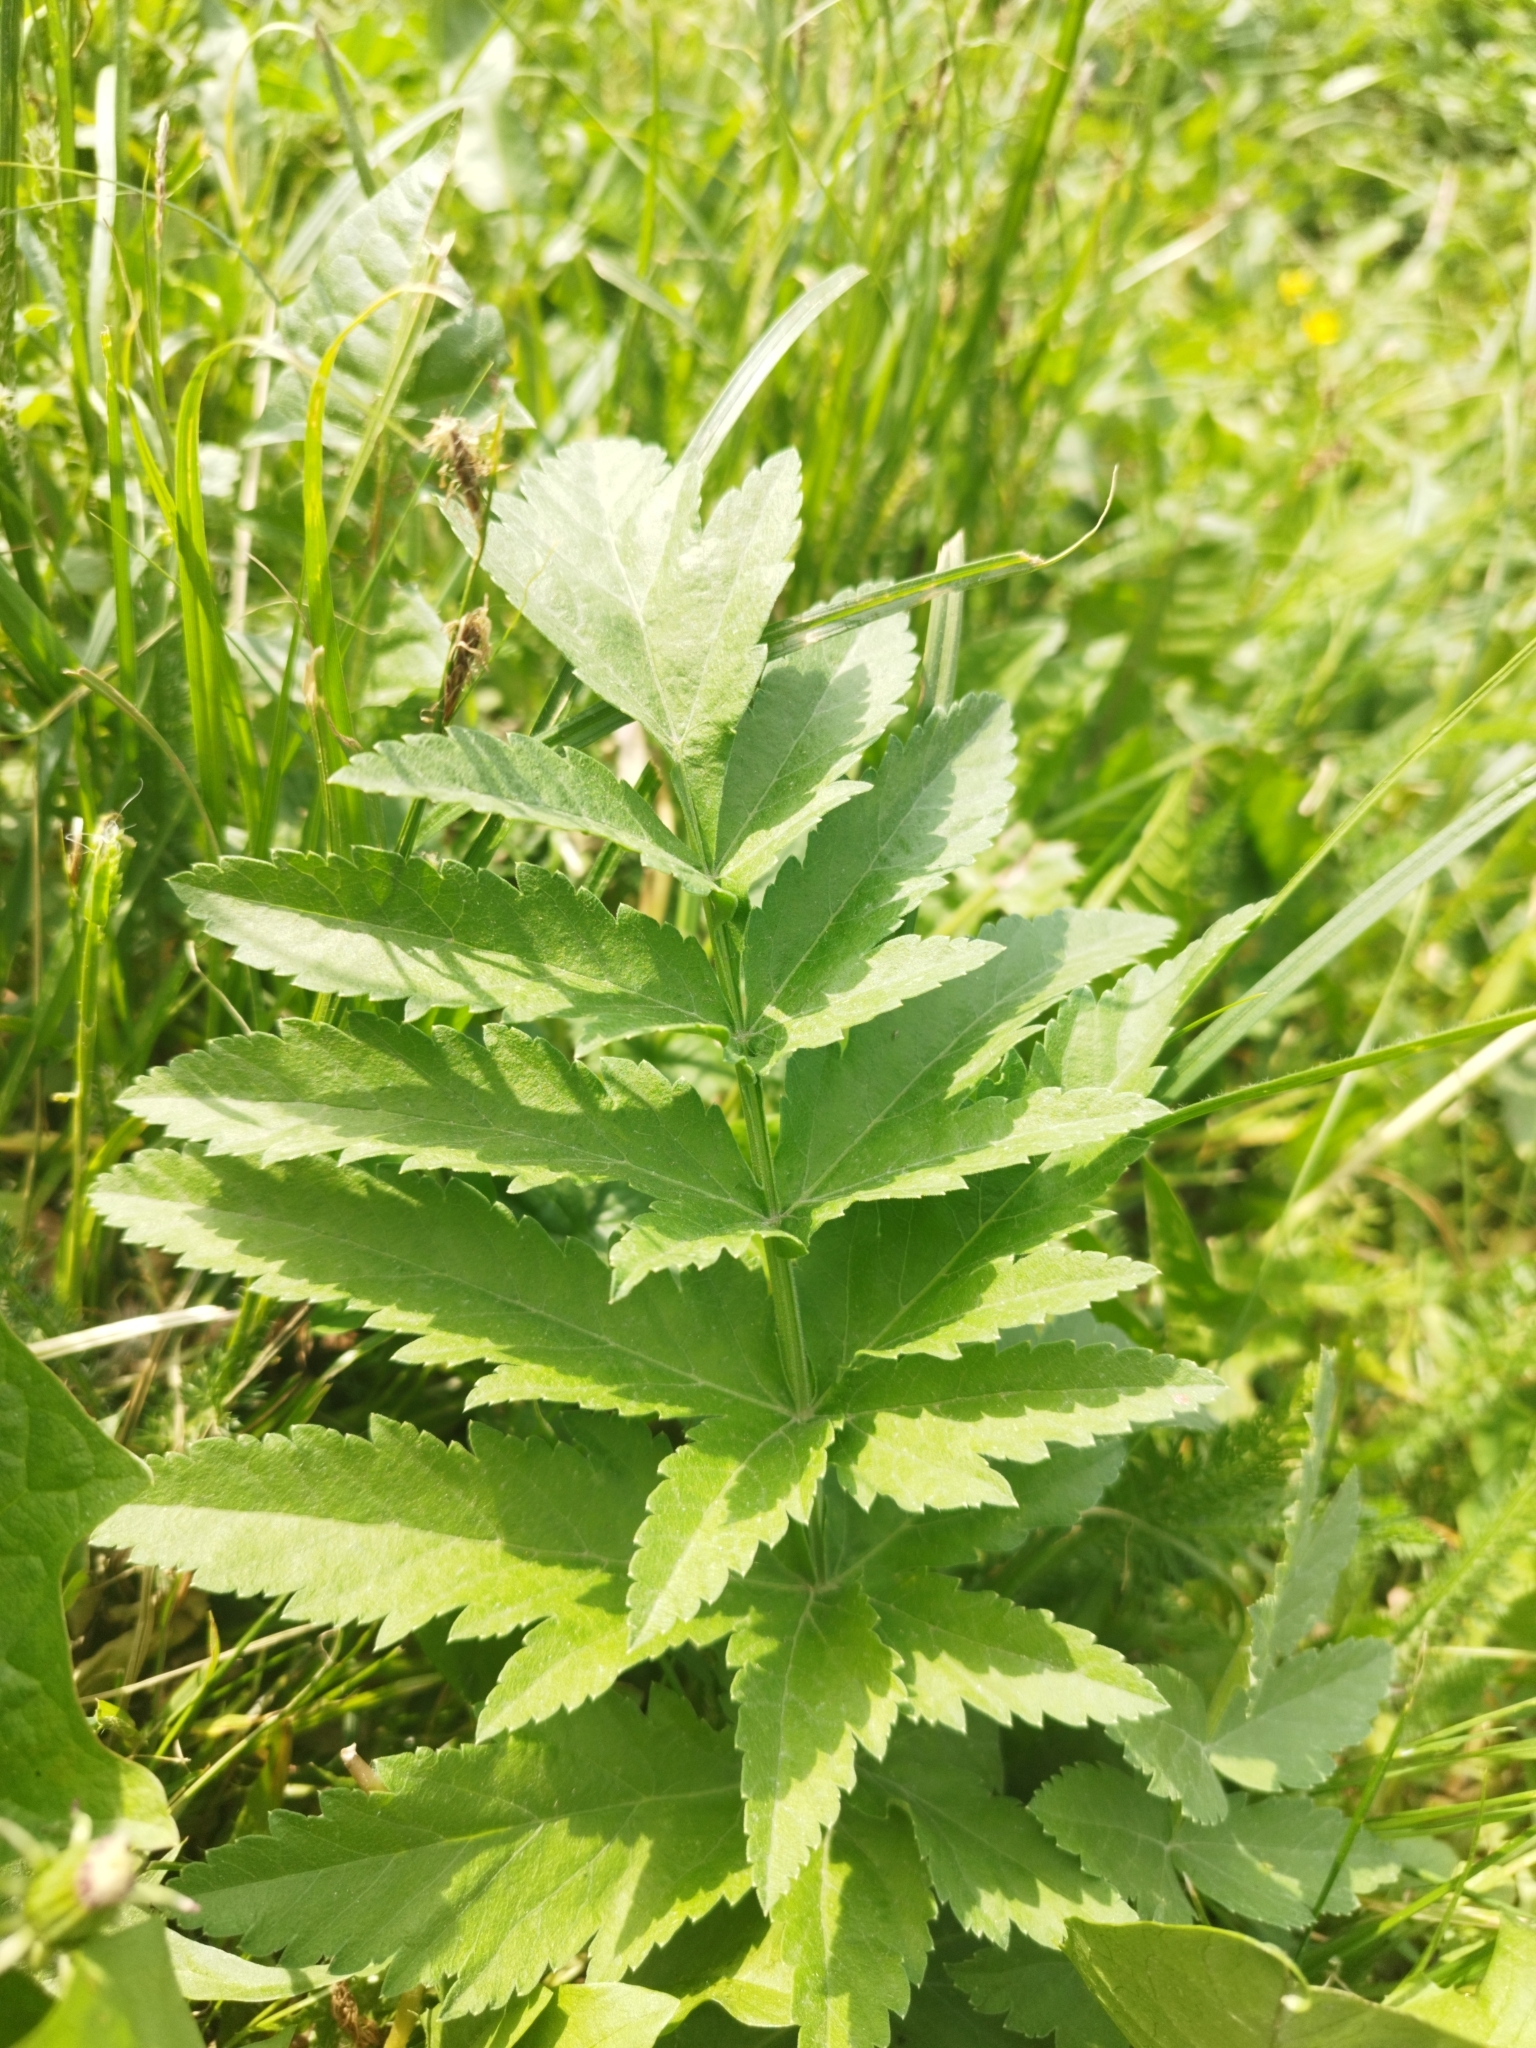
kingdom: Plantae
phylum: Tracheophyta
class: Magnoliopsida
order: Apiales
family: Apiaceae
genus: Pastinaca
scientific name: Pastinaca sativa
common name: Wild parsnip
